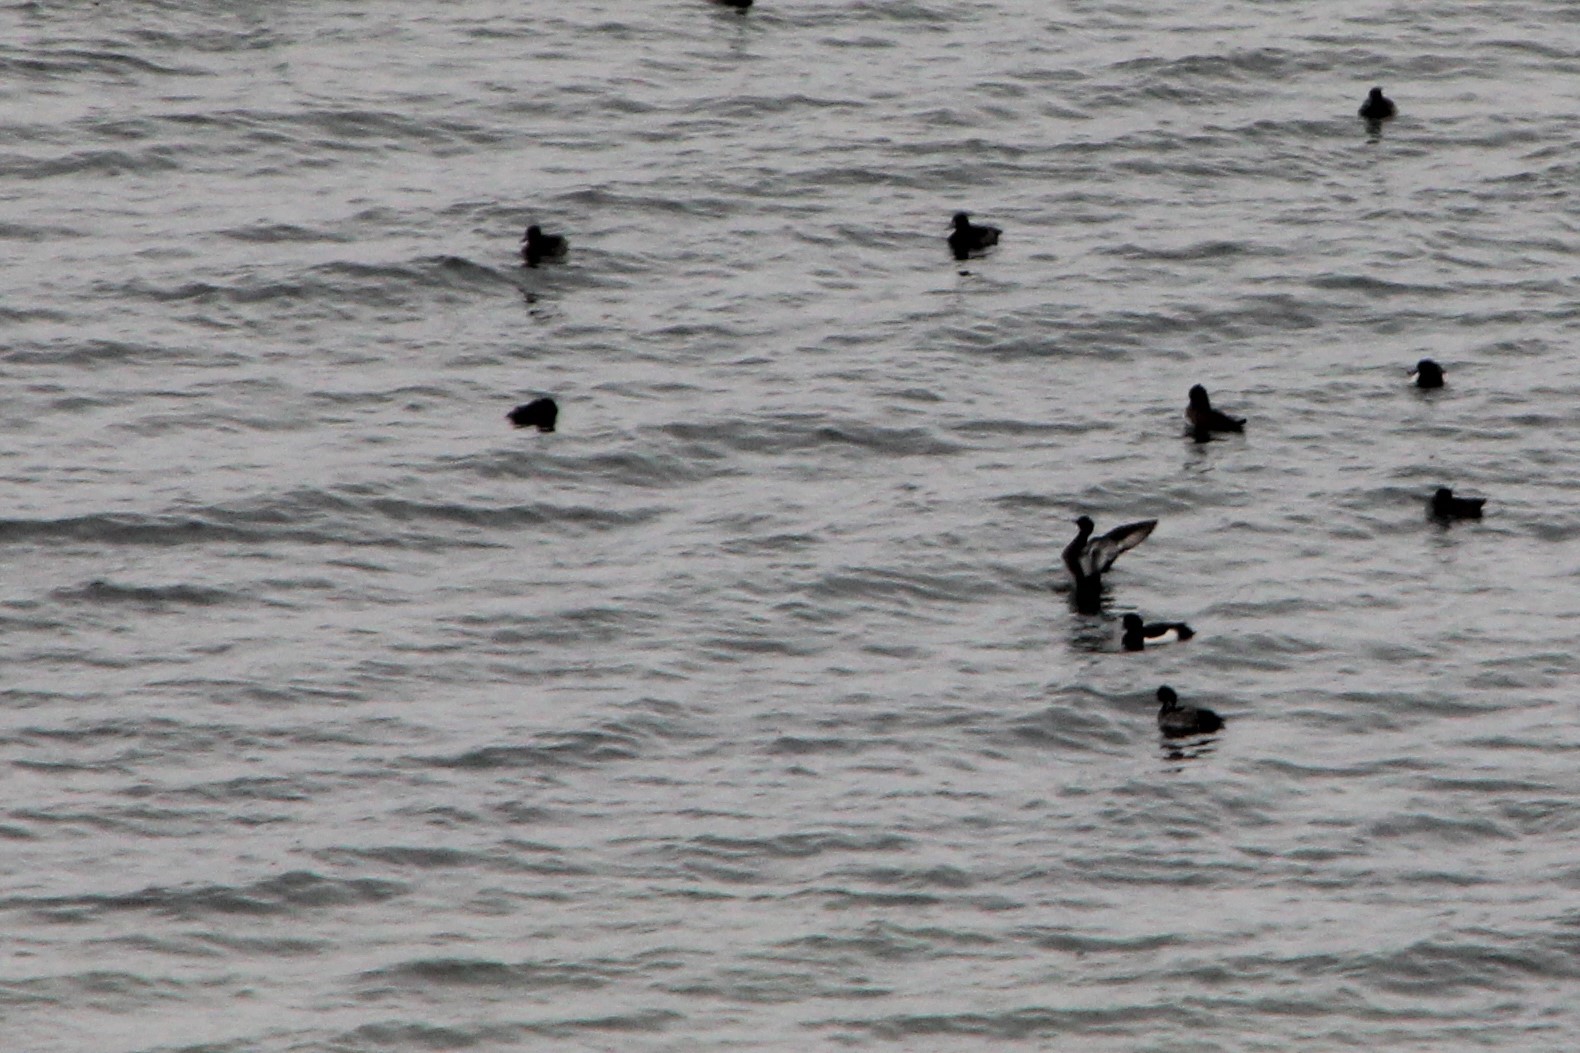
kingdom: Animalia
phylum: Chordata
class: Aves
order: Anseriformes
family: Anatidae
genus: Aythya
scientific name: Aythya fuligula
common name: Tufted duck
